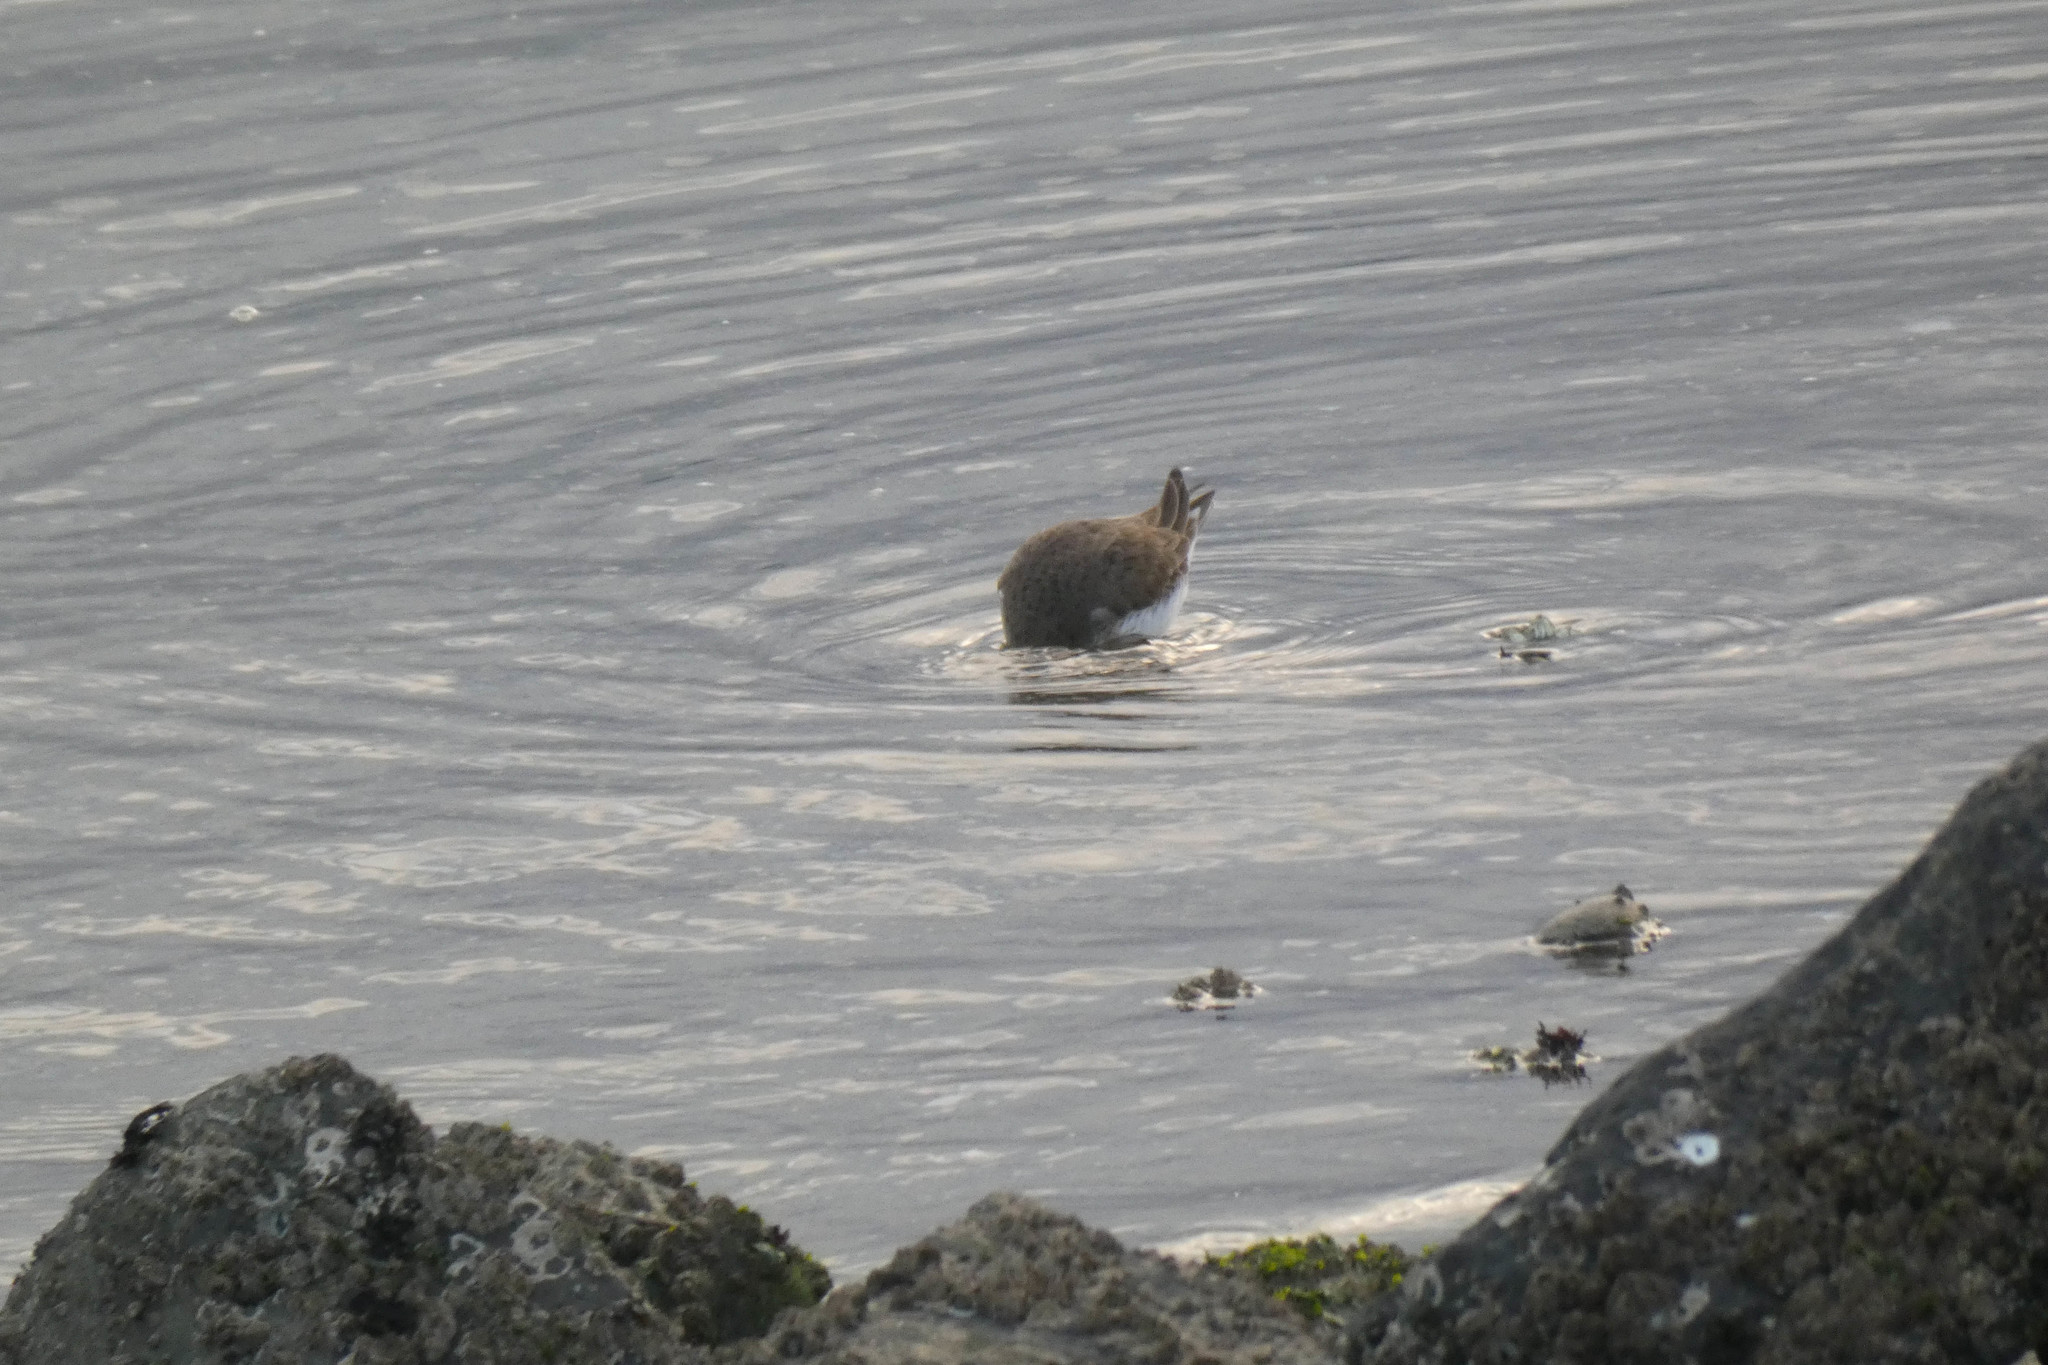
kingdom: Animalia
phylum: Chordata
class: Aves
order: Charadriiformes
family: Scolopacidae
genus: Calidris
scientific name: Calidris alpina
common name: Dunlin
